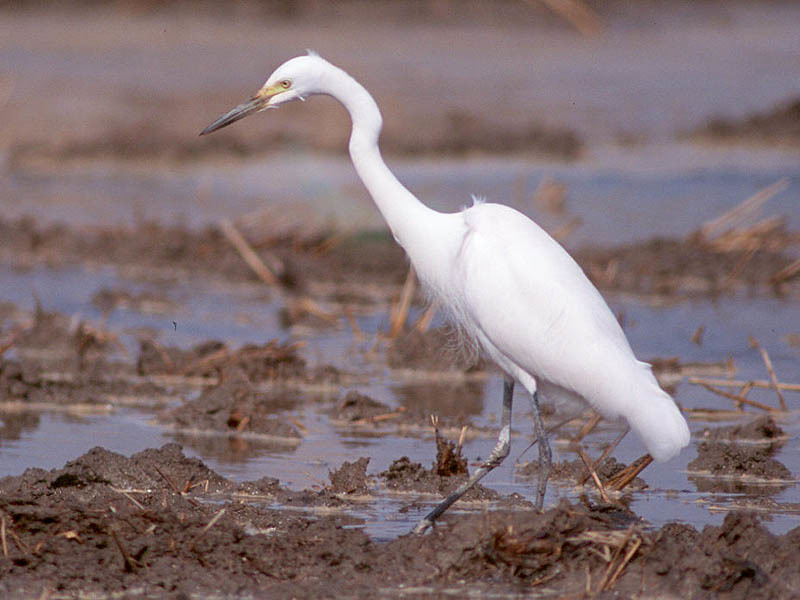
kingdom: Animalia
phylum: Chordata
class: Aves
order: Pelecaniformes
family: Ardeidae
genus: Egretta
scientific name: Egretta intermedia
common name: Intermediate egret
